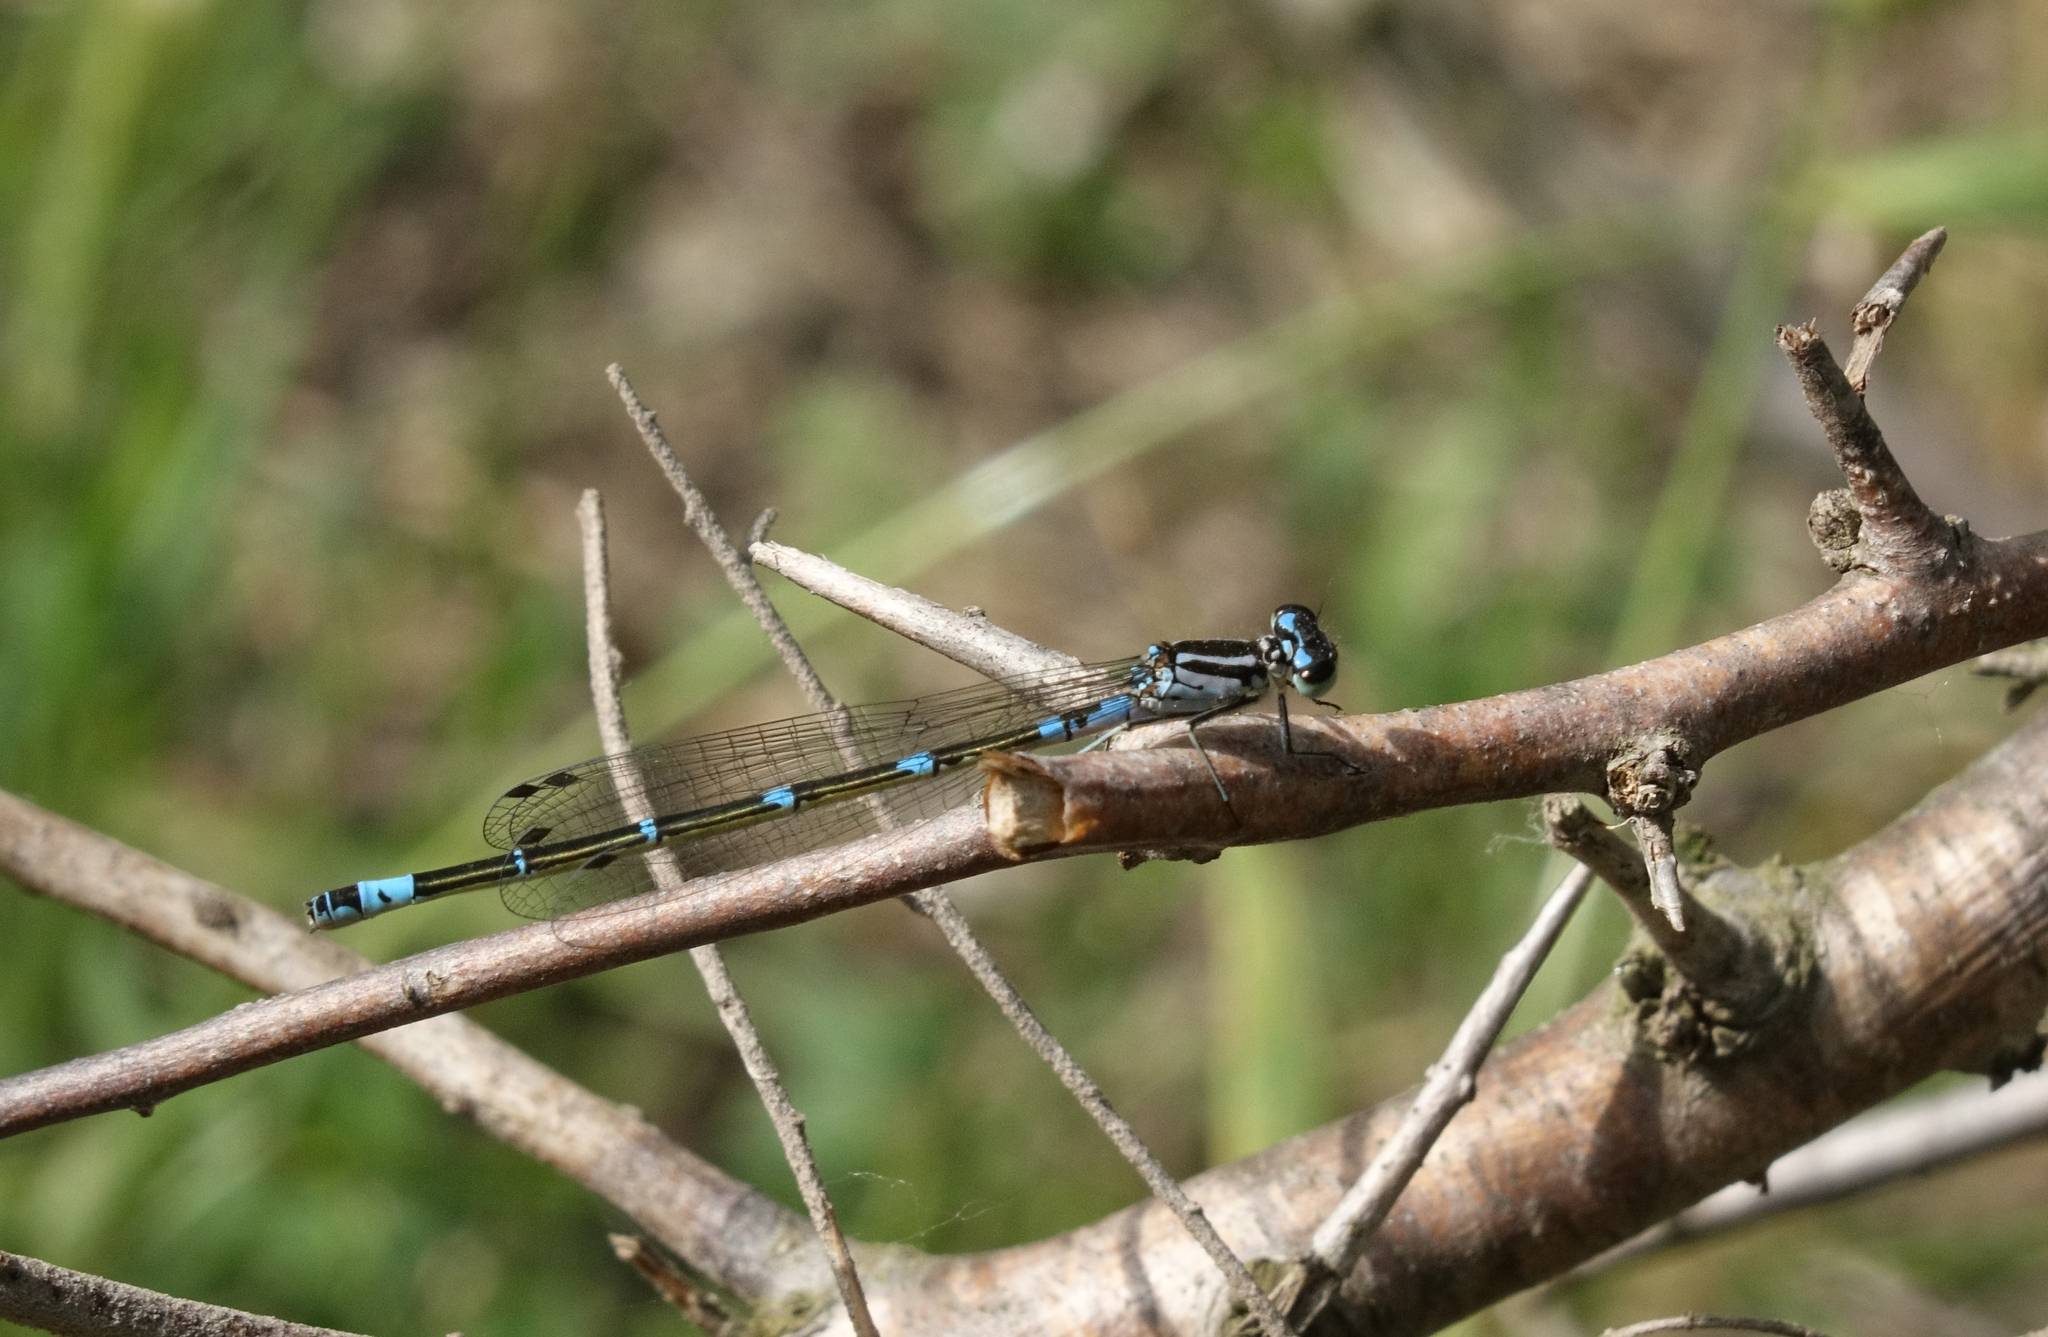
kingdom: Animalia
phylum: Arthropoda
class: Insecta
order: Odonata
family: Coenagrionidae
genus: Coenagrion
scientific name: Coenagrion pulchellum
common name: Variable bluet
